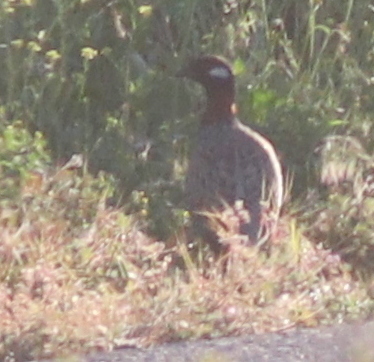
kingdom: Animalia
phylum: Chordata
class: Aves
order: Galliformes
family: Phasianidae
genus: Francolinus
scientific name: Francolinus francolinus
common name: Black francolin
